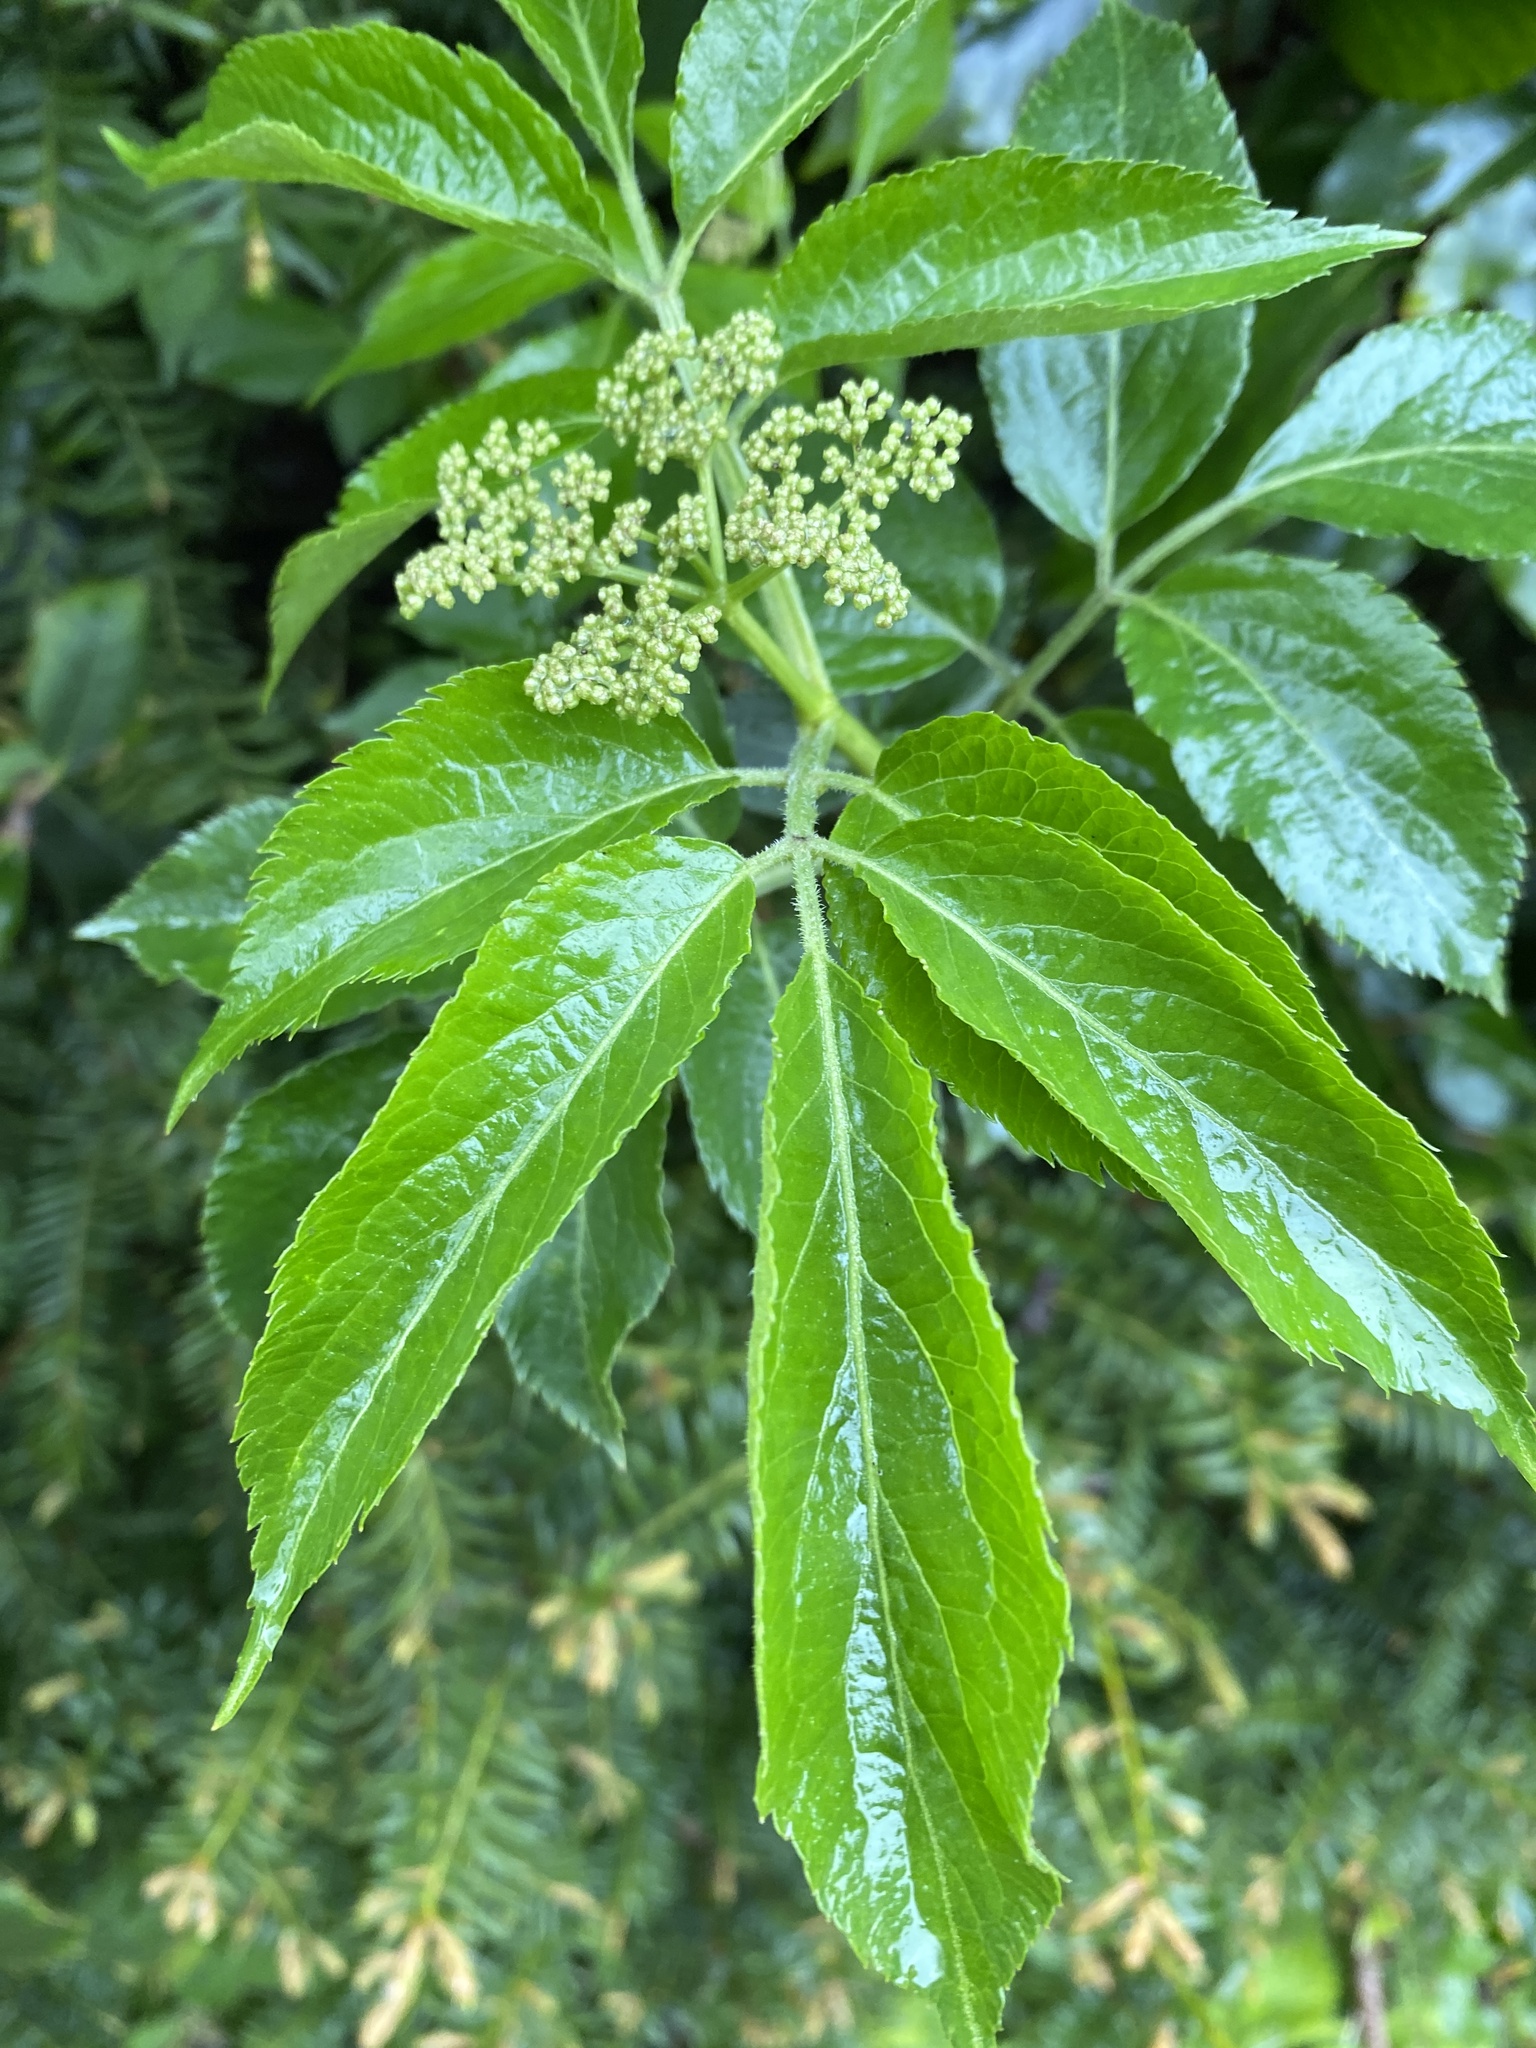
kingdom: Plantae
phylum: Tracheophyta
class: Magnoliopsida
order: Dipsacales
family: Viburnaceae
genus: Sambucus
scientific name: Sambucus nigra
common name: Elder
